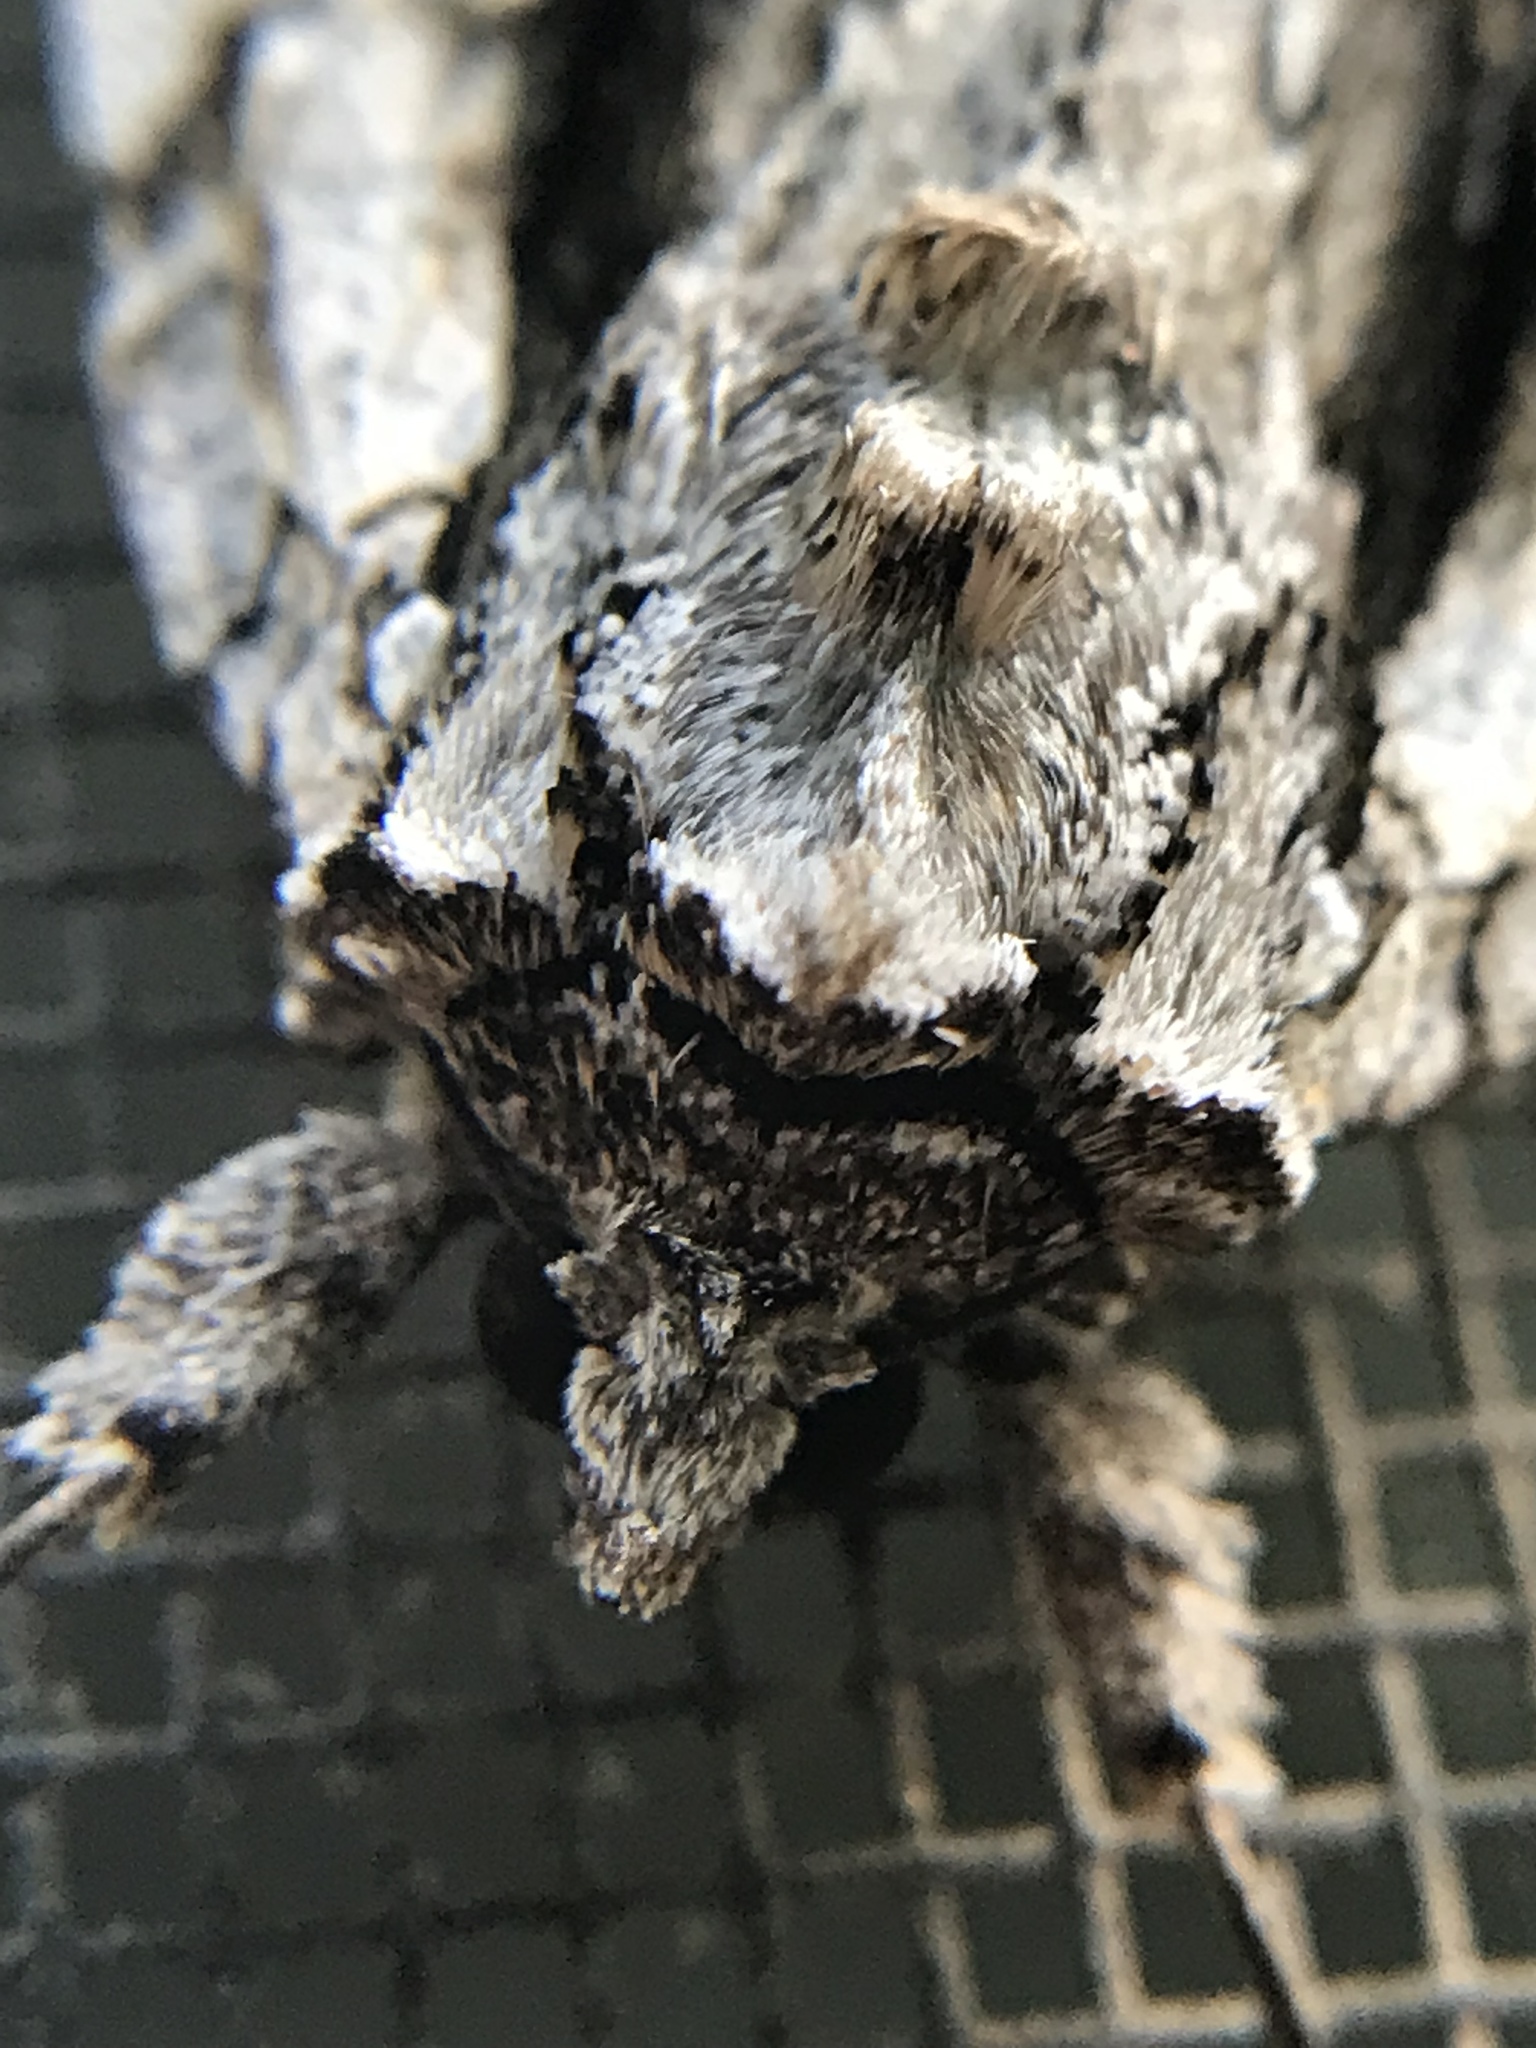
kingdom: Animalia
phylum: Arthropoda
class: Insecta
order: Lepidoptera
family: Erebidae
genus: Catocala
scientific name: Catocala coccinata
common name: Scarlet underwing
